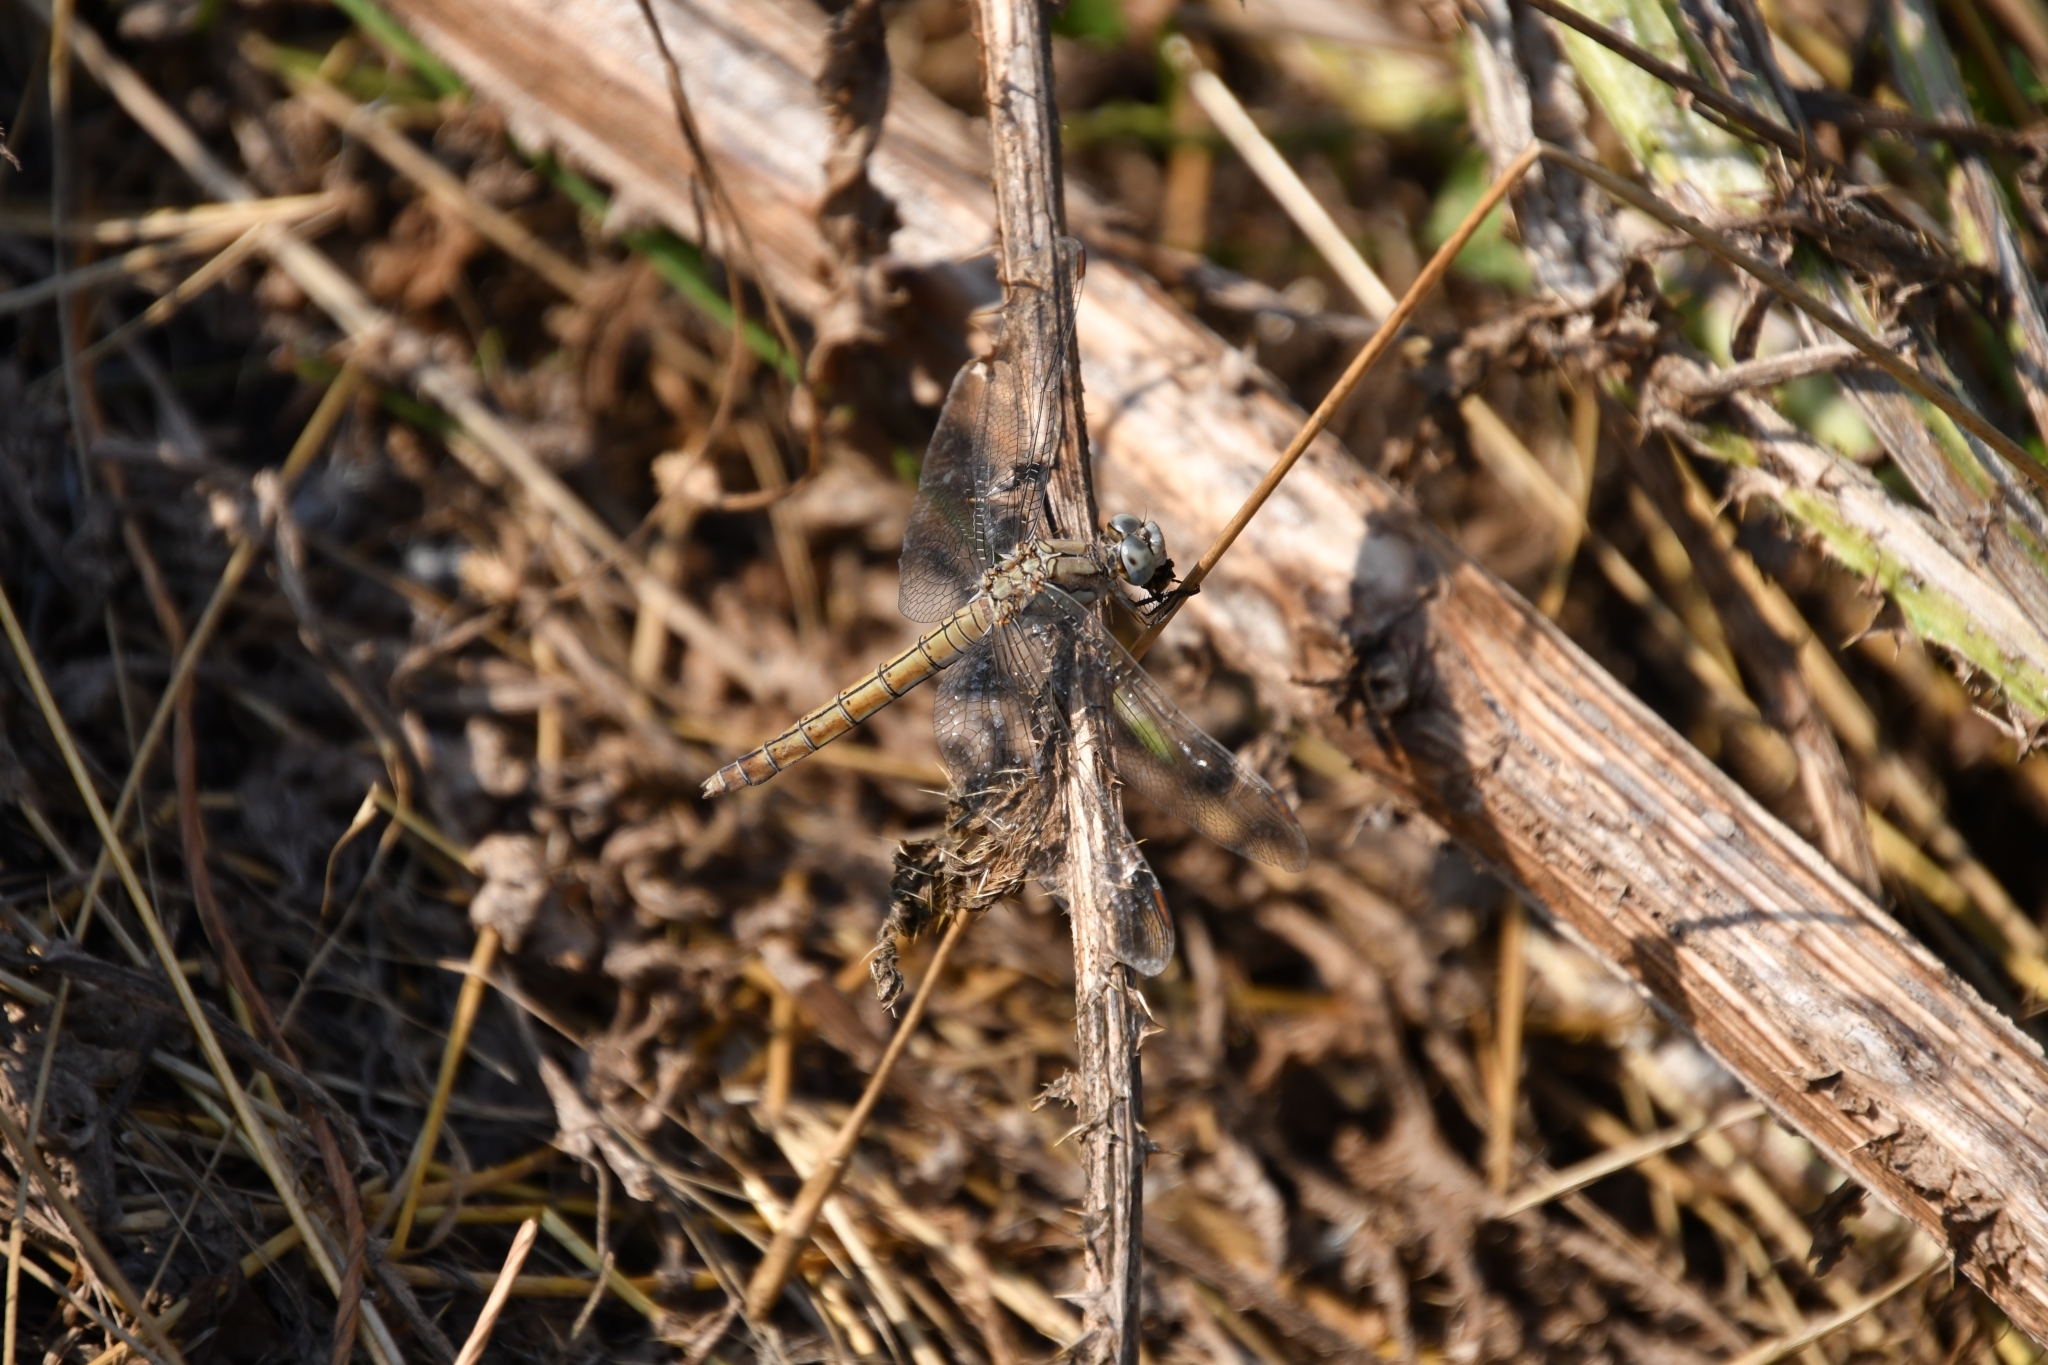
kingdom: Animalia
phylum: Arthropoda
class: Insecta
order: Odonata
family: Libellulidae
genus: Orthetrum
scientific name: Orthetrum brunneum
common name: Southern skimmer
